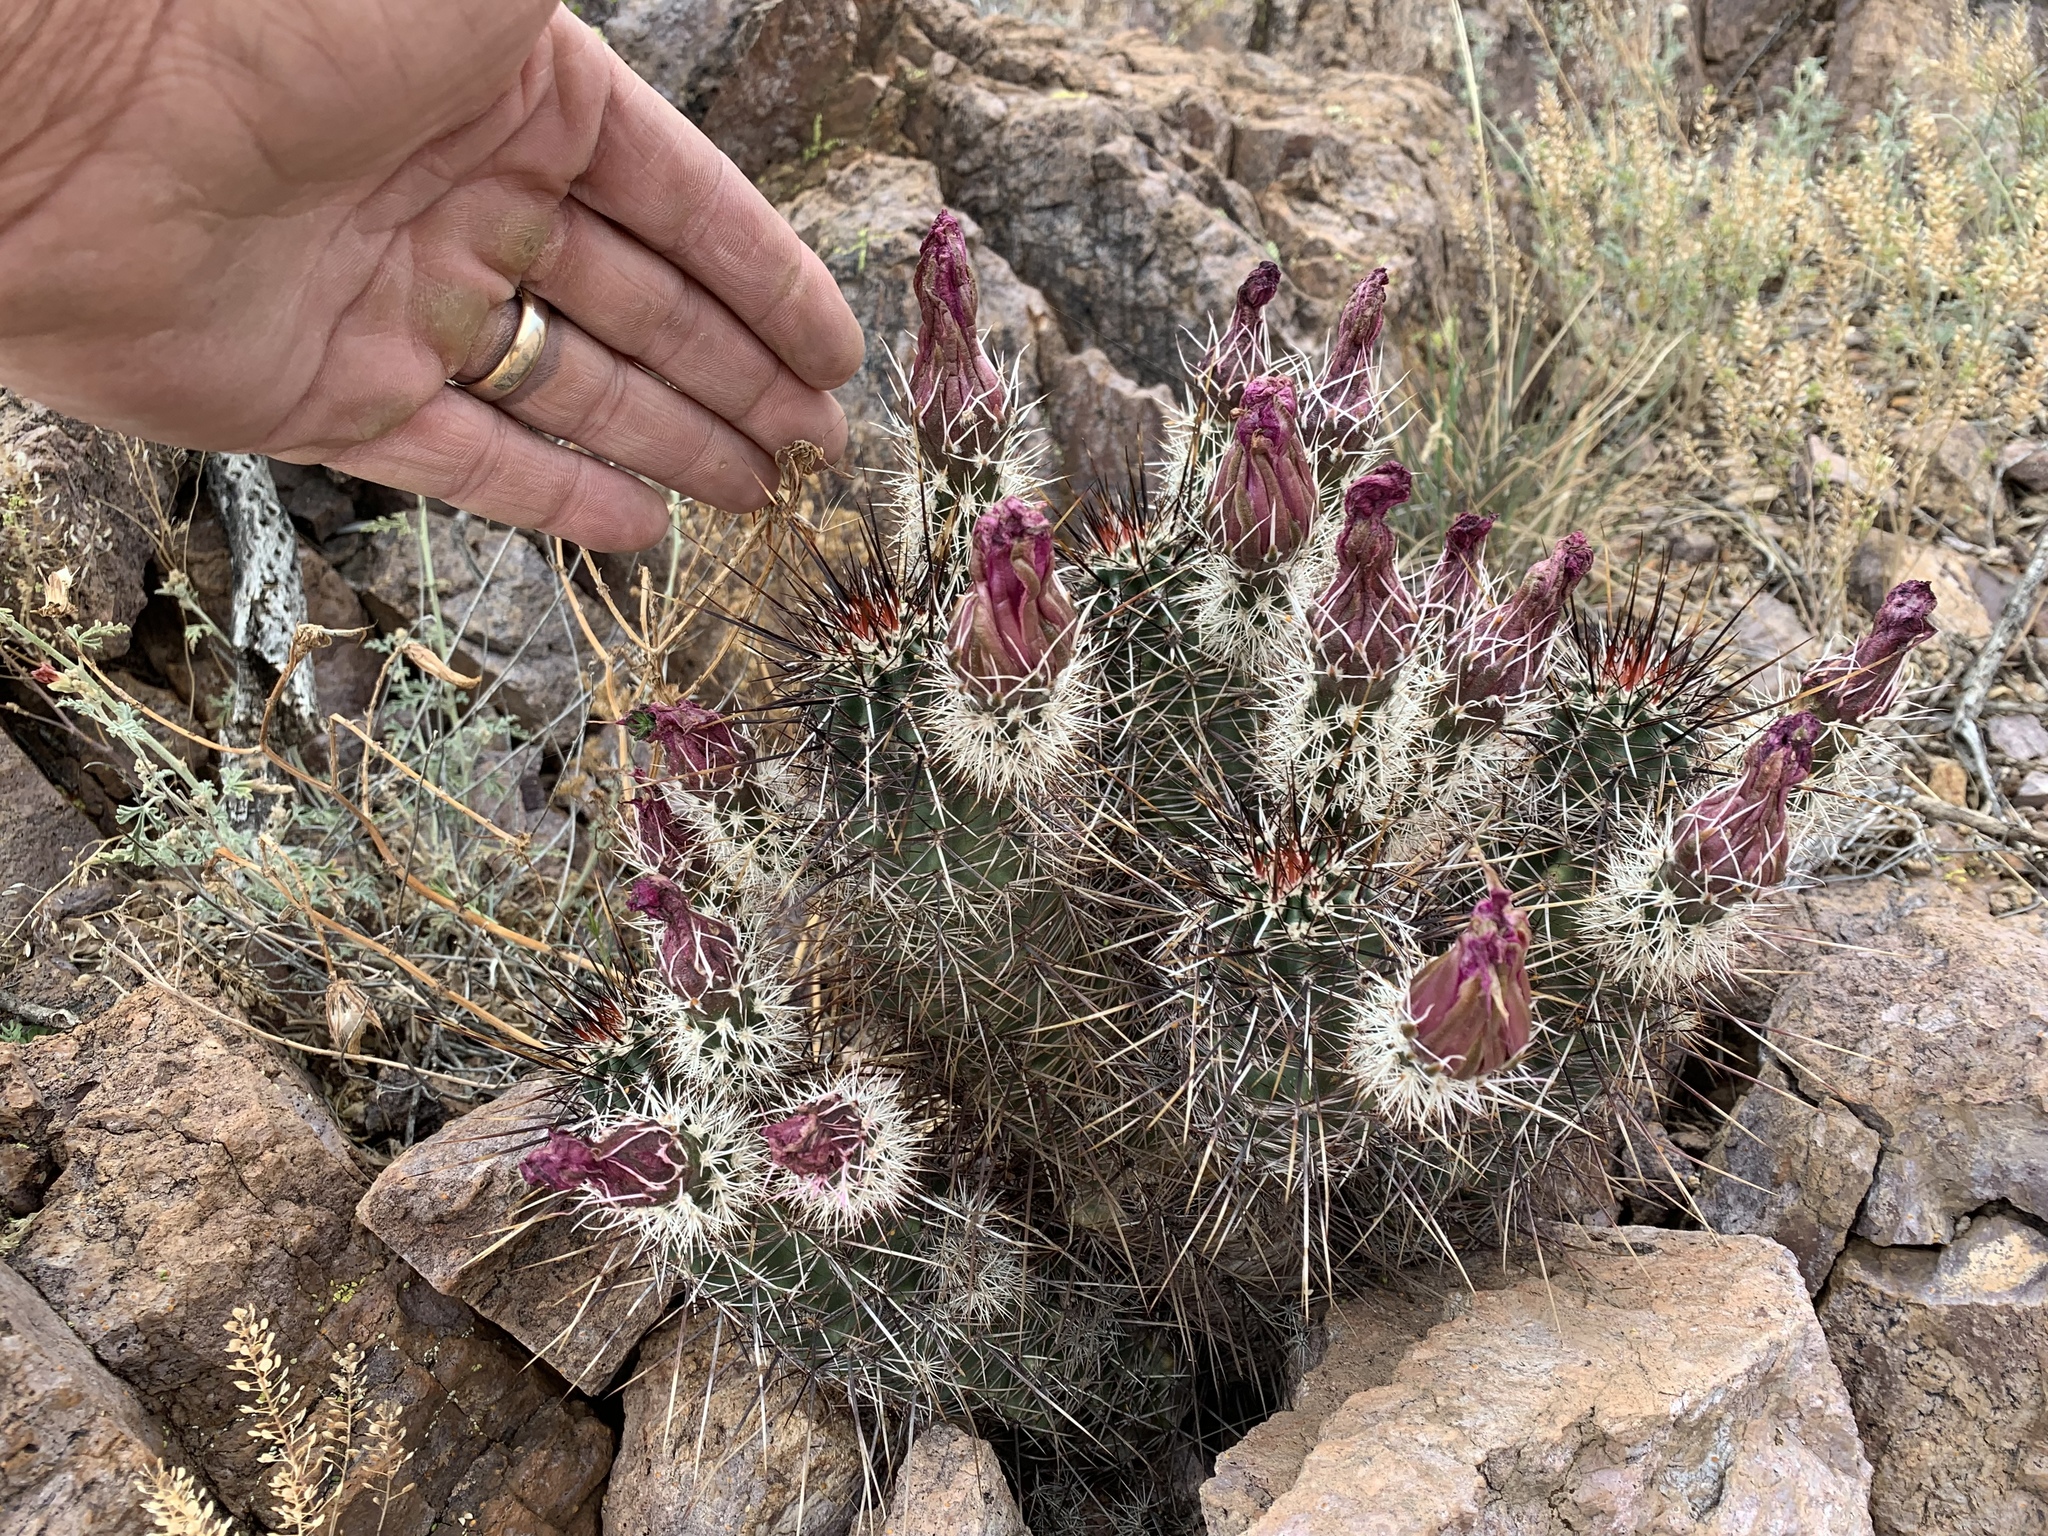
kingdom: Plantae
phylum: Tracheophyta
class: Magnoliopsida
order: Caryophyllales
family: Cactaceae
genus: Echinocereus
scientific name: Echinocereus fendleri
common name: Fendler's hedgehog cactus
